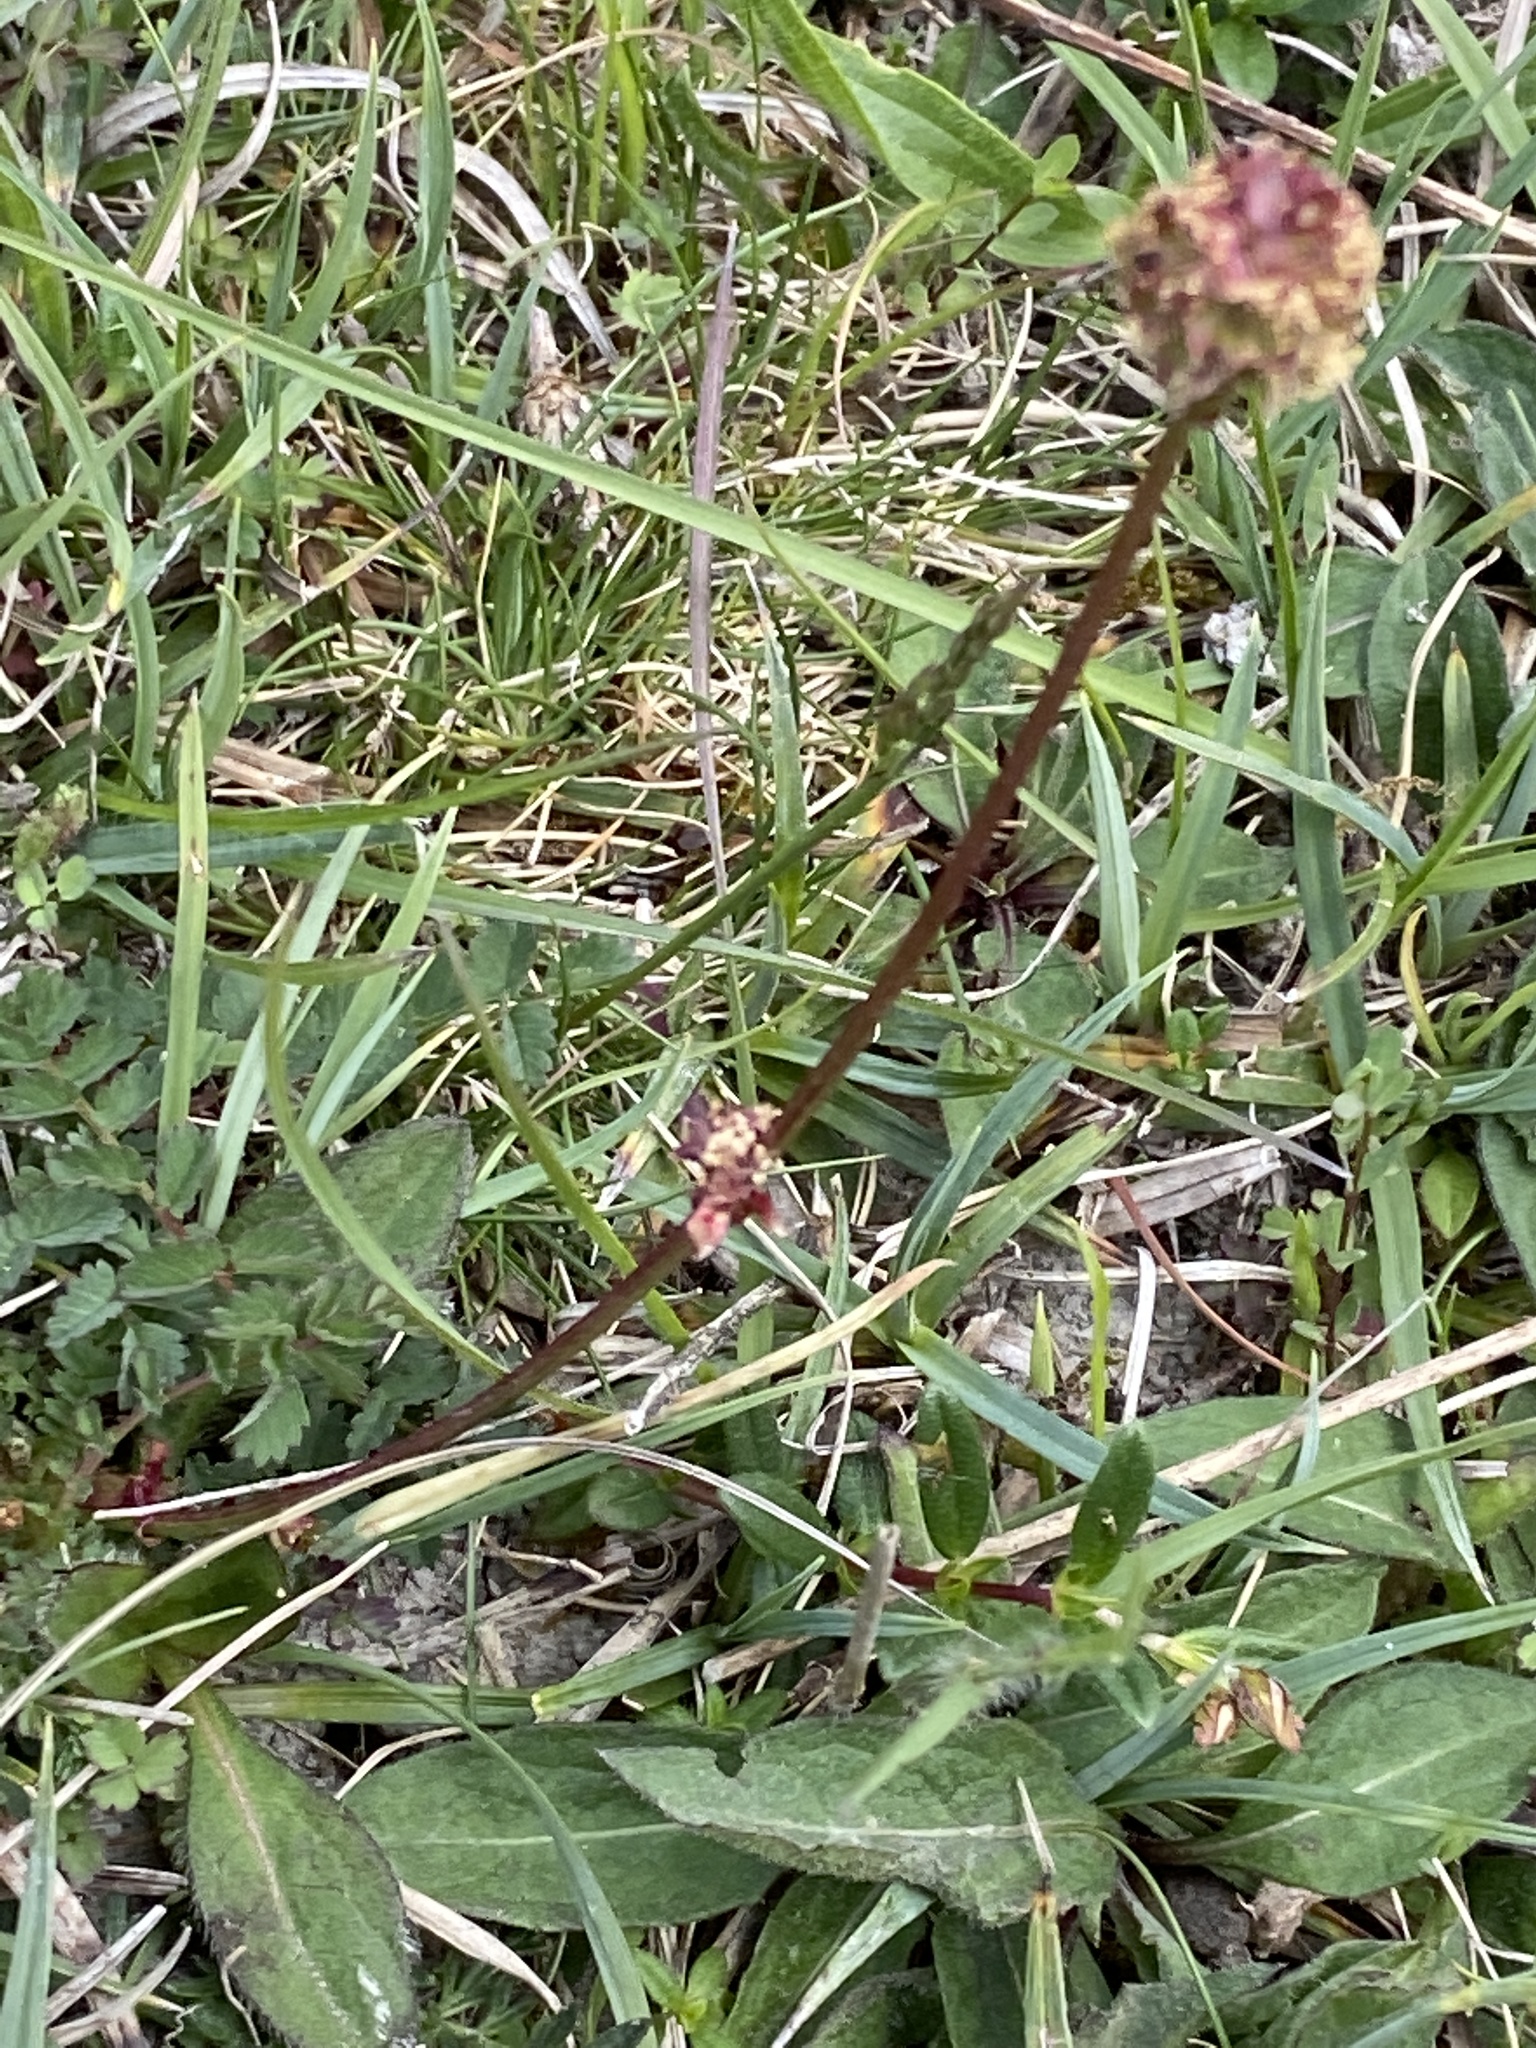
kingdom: Plantae
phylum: Tracheophyta
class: Magnoliopsida
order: Rosales
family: Rosaceae
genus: Poterium
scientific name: Poterium sanguisorba
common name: Salad burnet
